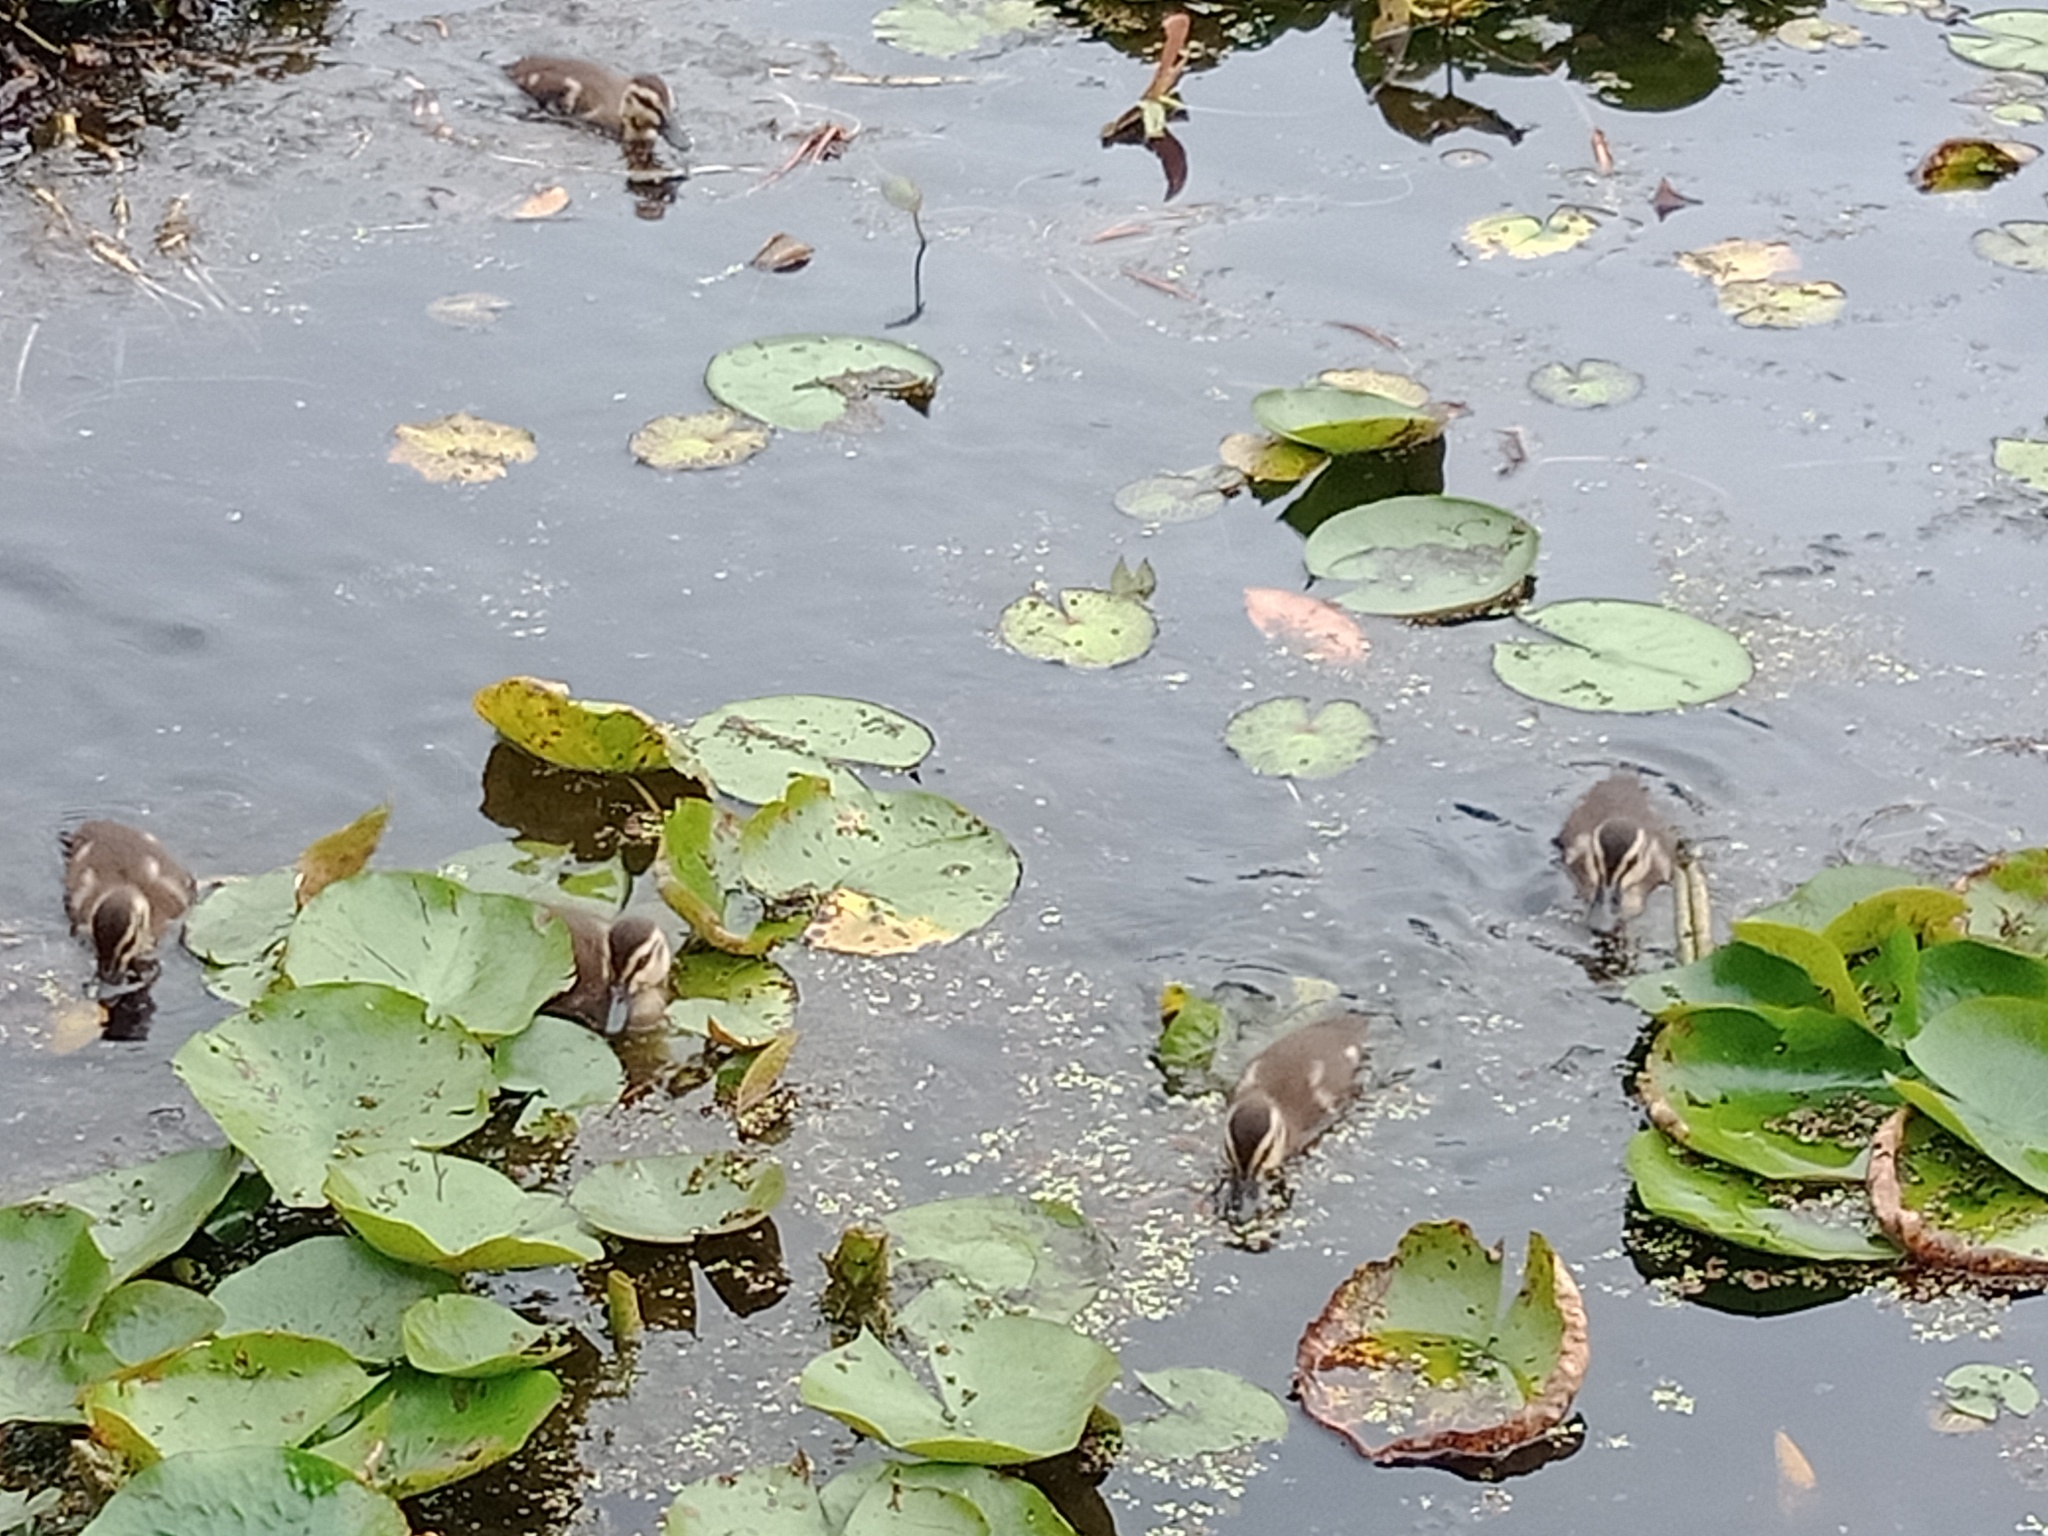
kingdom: Animalia
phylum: Chordata
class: Aves
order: Anseriformes
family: Anatidae
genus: Anas
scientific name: Anas superciliosa
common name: Pacific black duck
